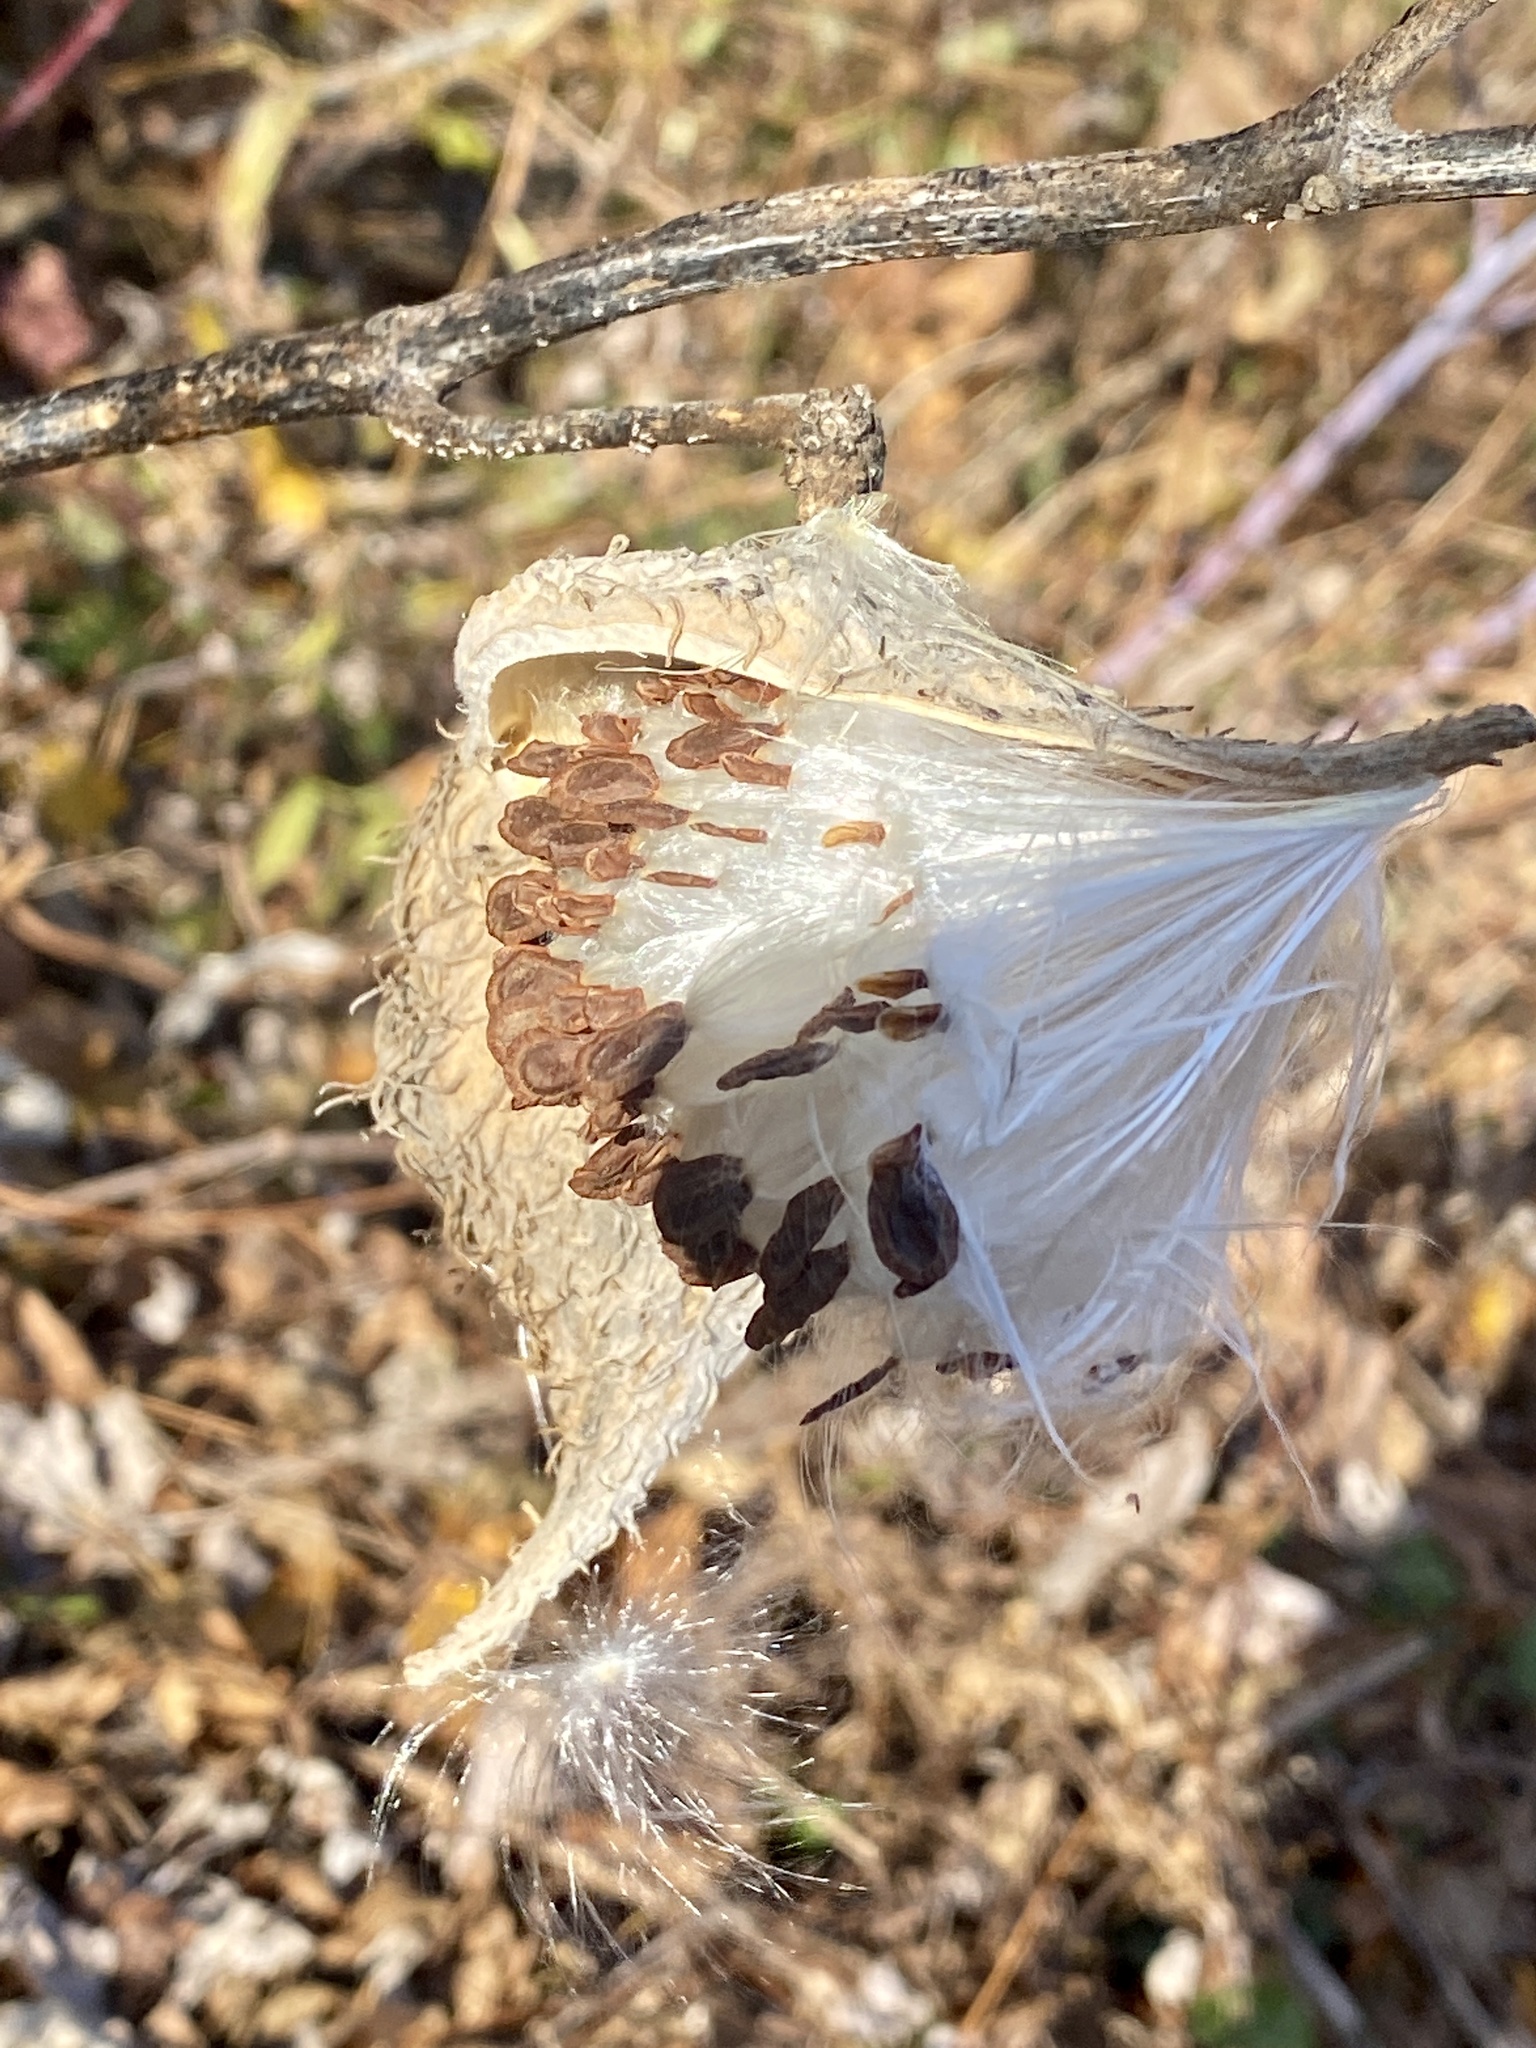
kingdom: Plantae
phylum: Tracheophyta
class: Magnoliopsida
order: Gentianales
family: Apocynaceae
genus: Asclepias
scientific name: Asclepias syriaca
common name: Common milkweed
